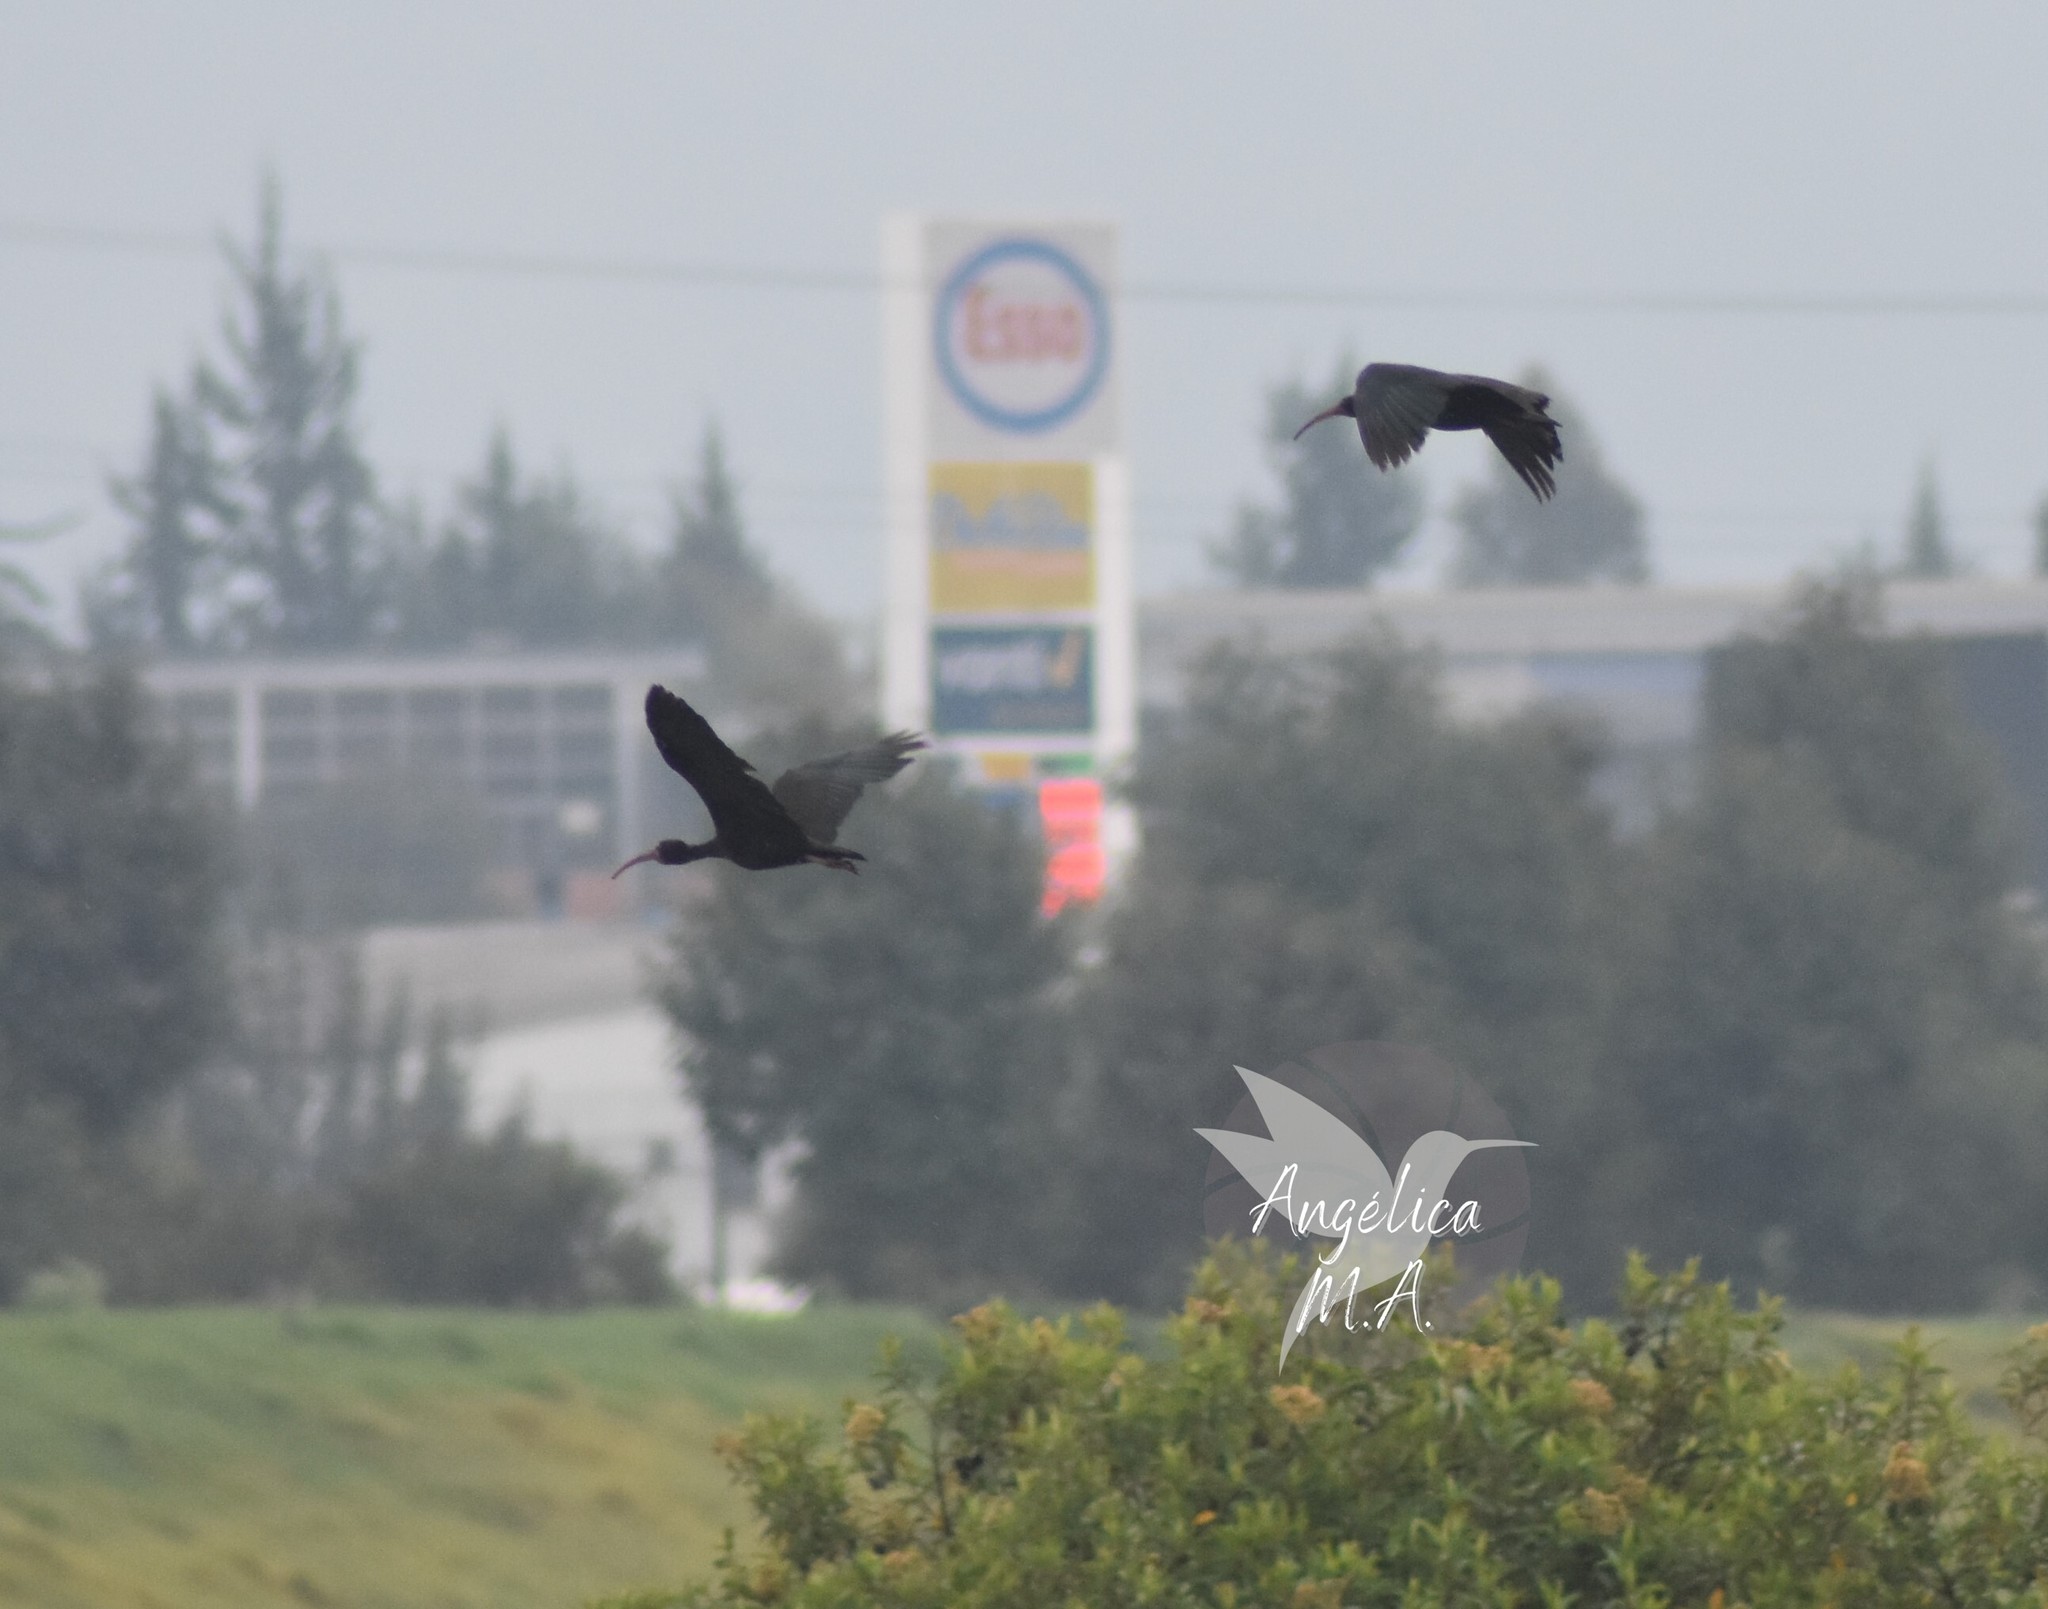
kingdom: Animalia
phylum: Chordata
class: Aves
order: Pelecaniformes
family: Threskiornithidae
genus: Phimosus
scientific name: Phimosus infuscatus
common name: Bare-faced ibis
